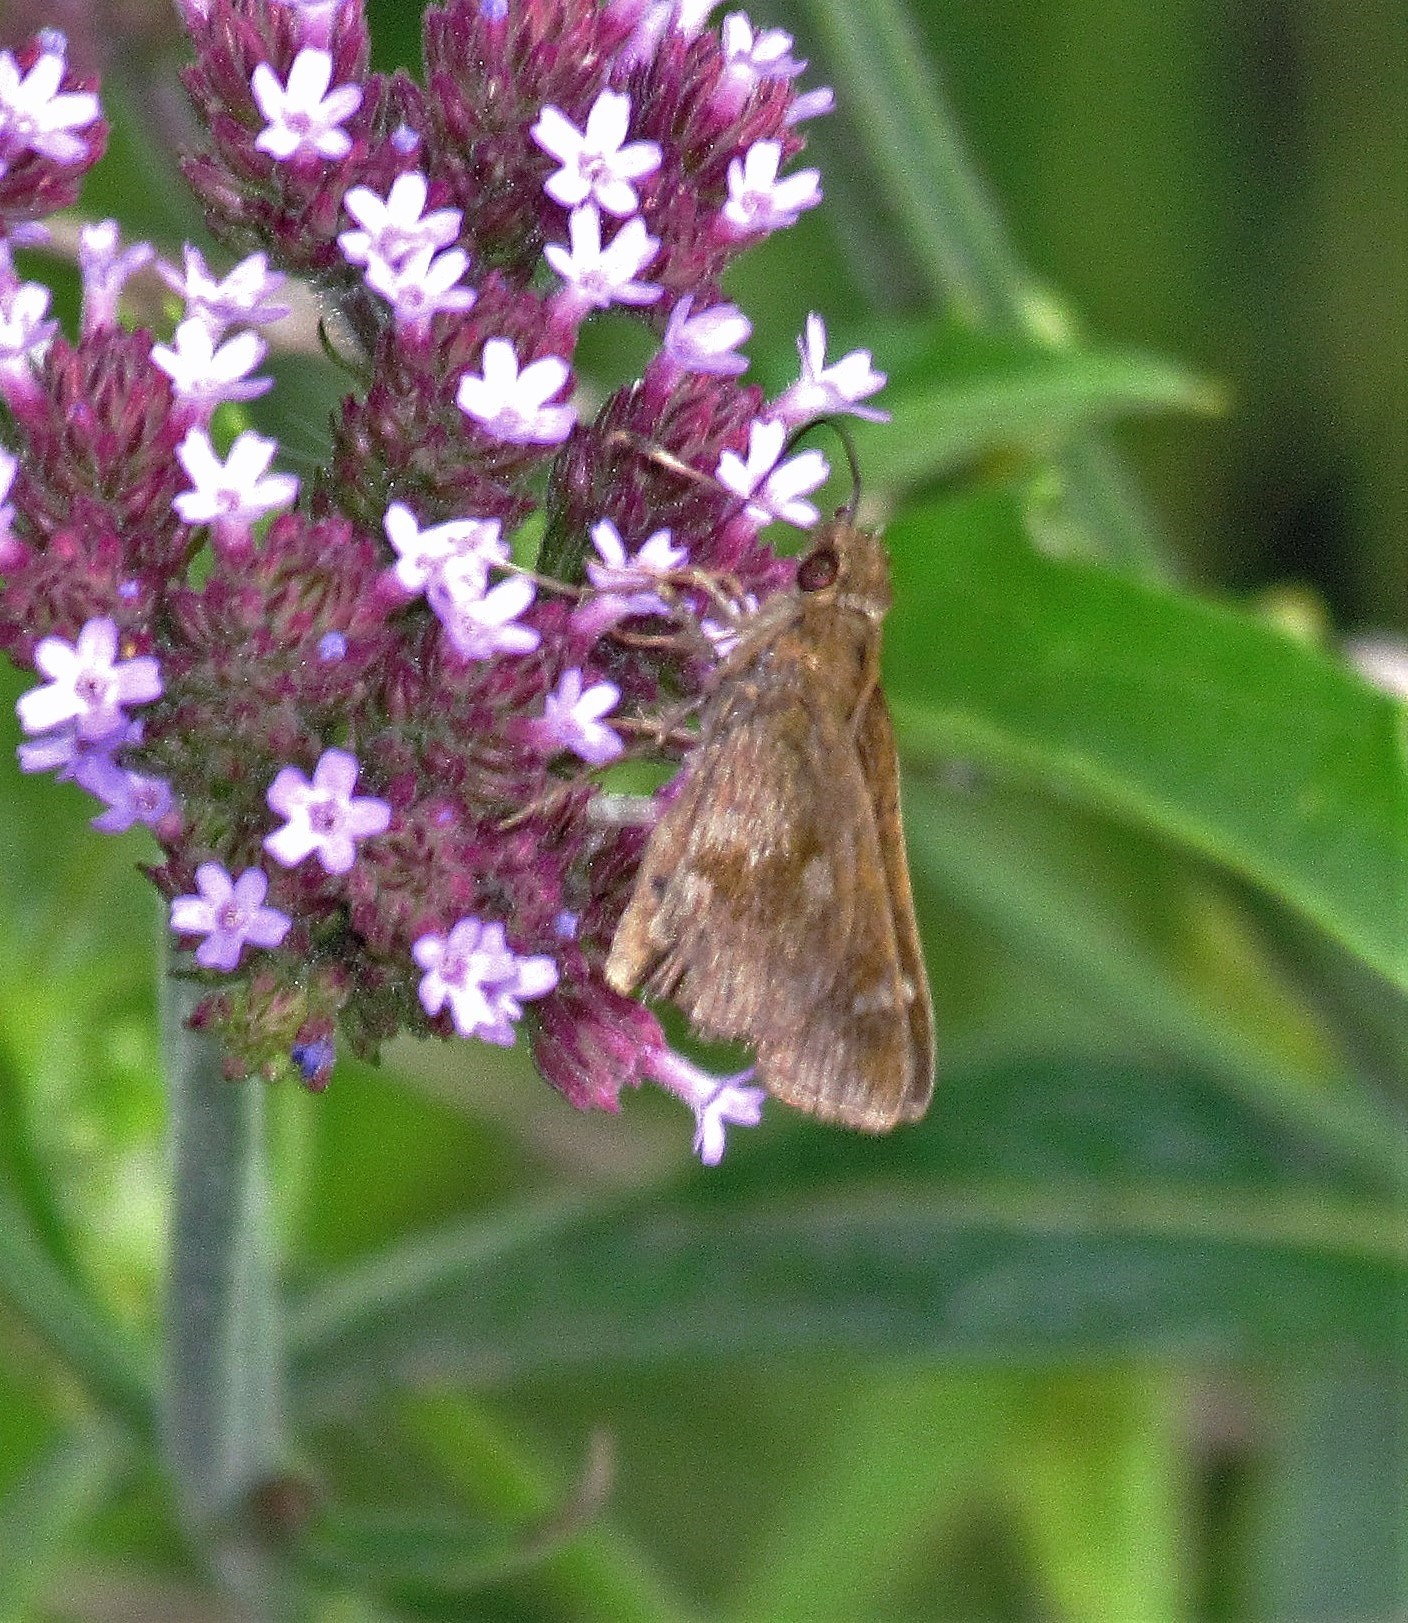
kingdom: Animalia
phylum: Arthropoda
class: Insecta
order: Lepidoptera
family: Hesperiidae
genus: Cymaenes
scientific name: Cymaenes
